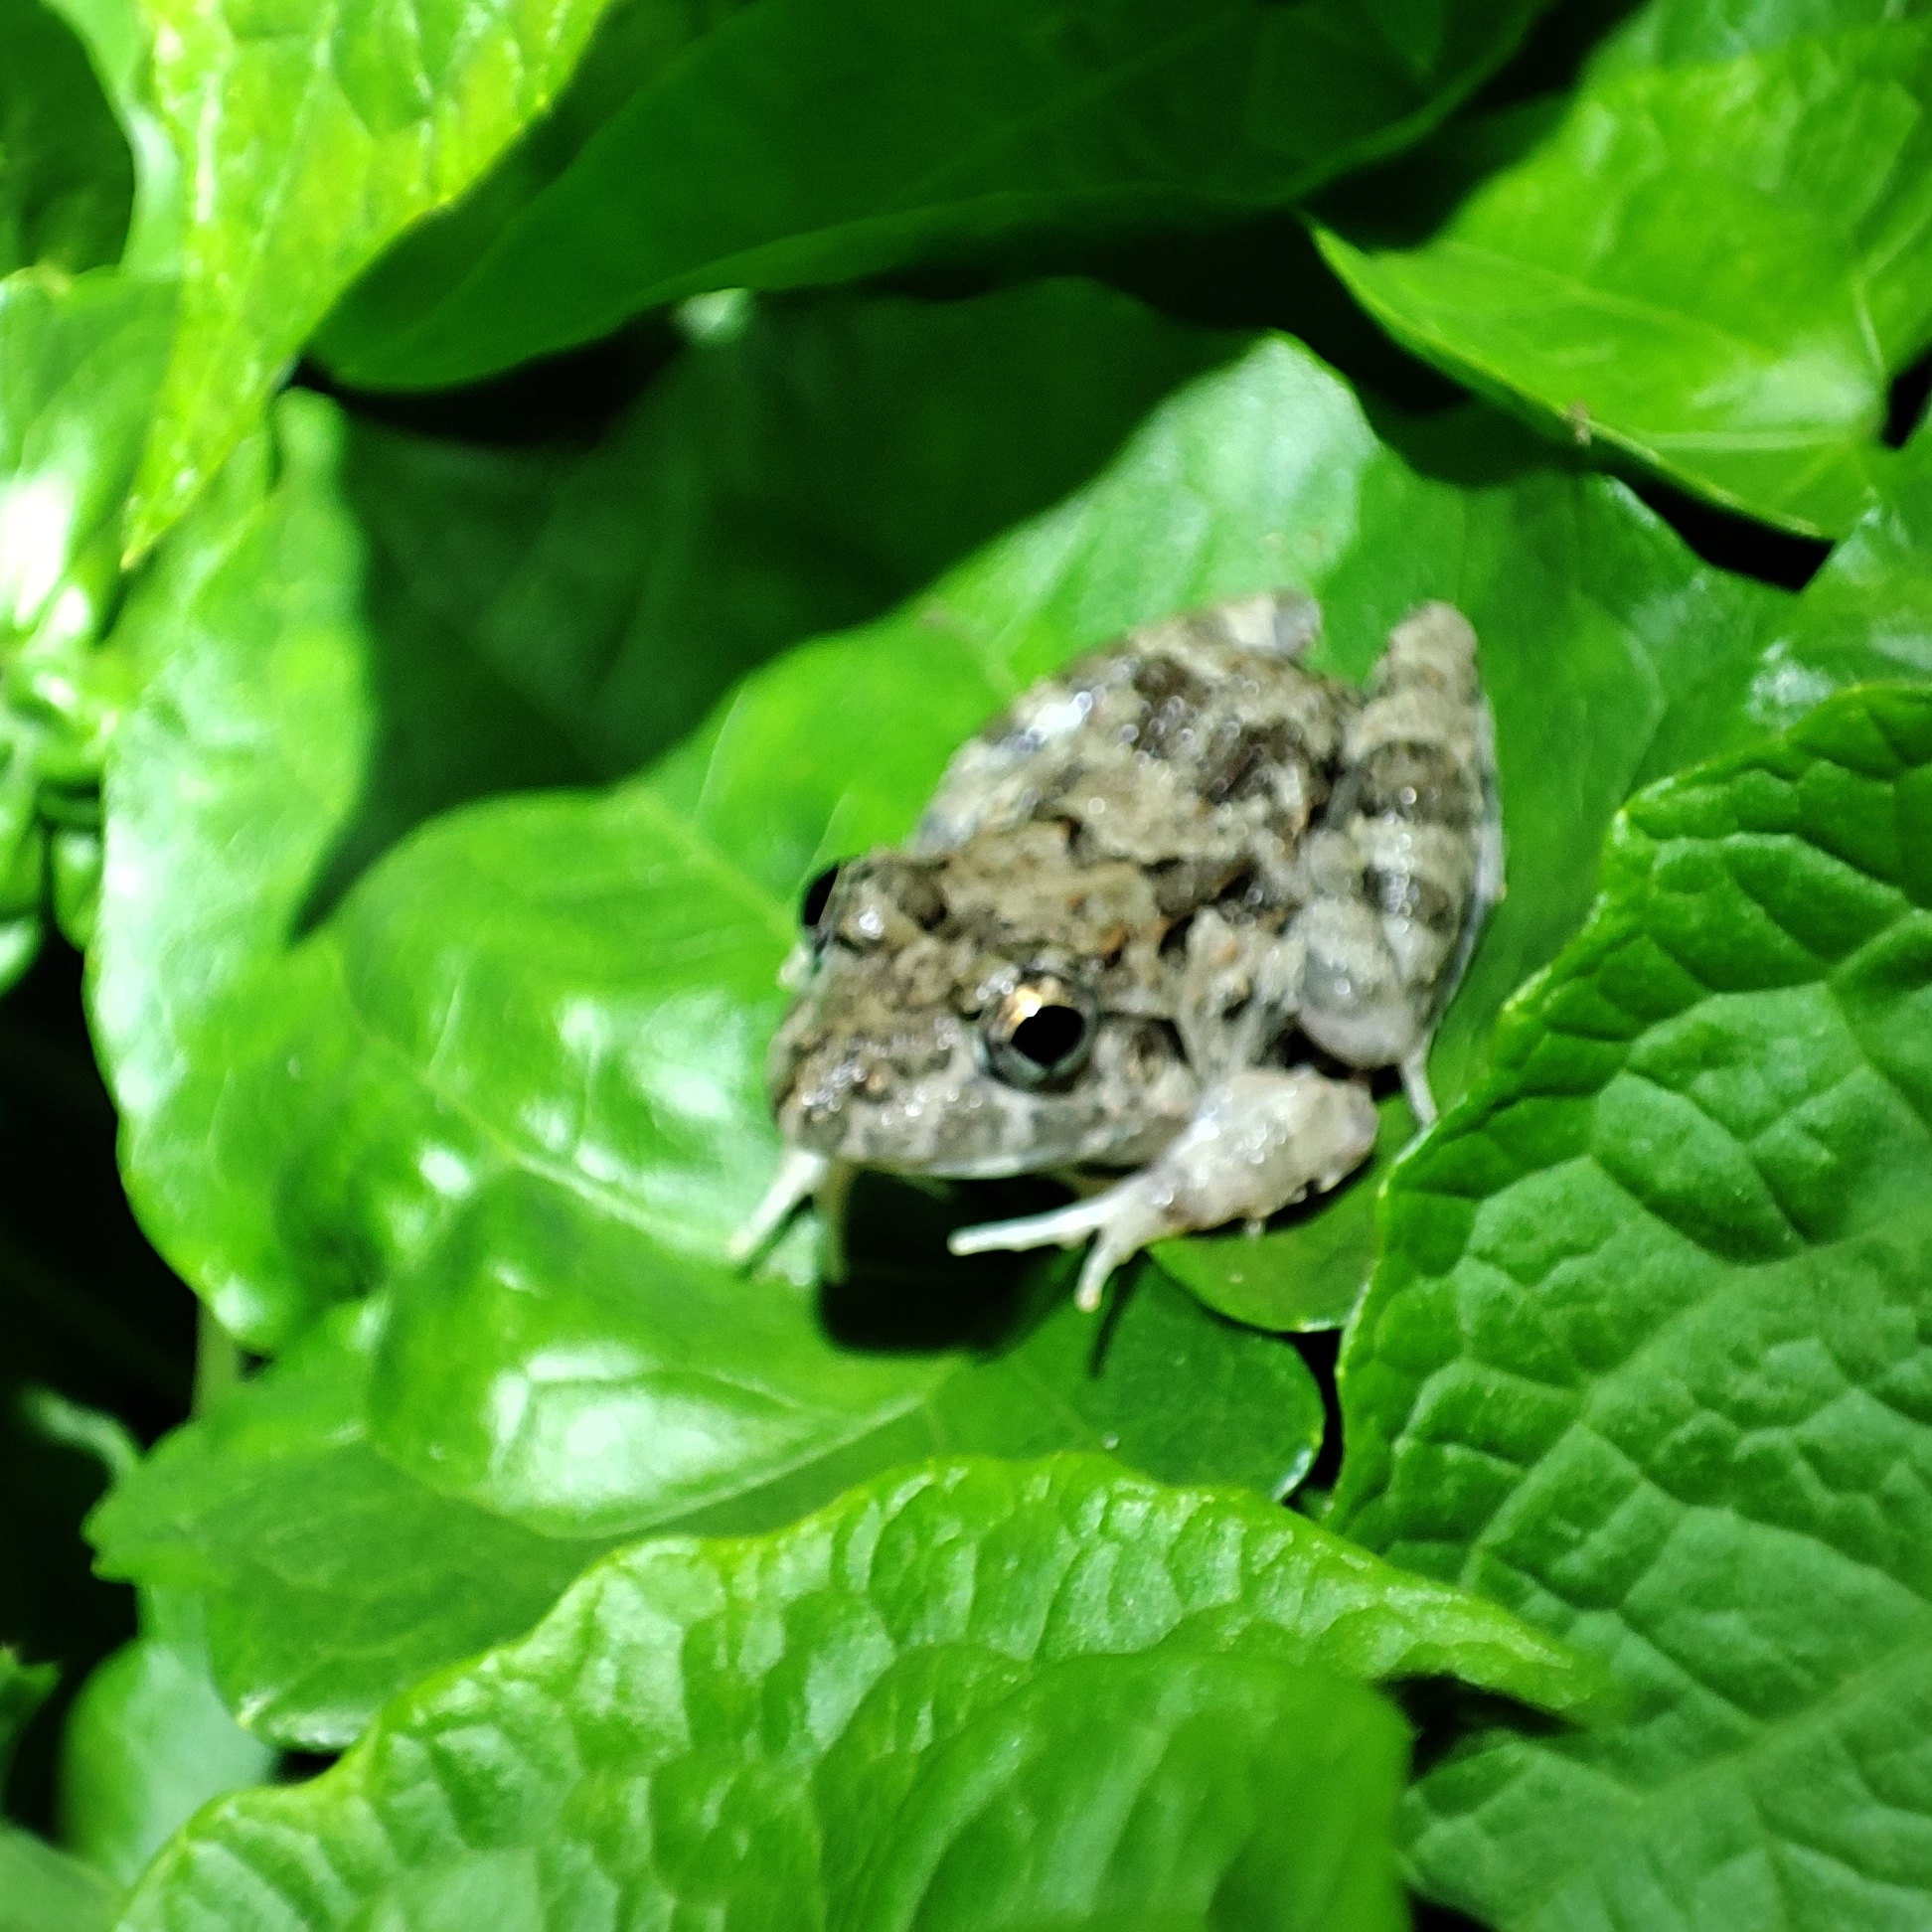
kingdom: Animalia
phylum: Chordata
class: Amphibia
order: Anura
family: Dicroglossidae
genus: Fejervarya
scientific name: Fejervarya limnocharis
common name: Asian grass frog/common pond frog/field frog/grass frog/indian rice frog
